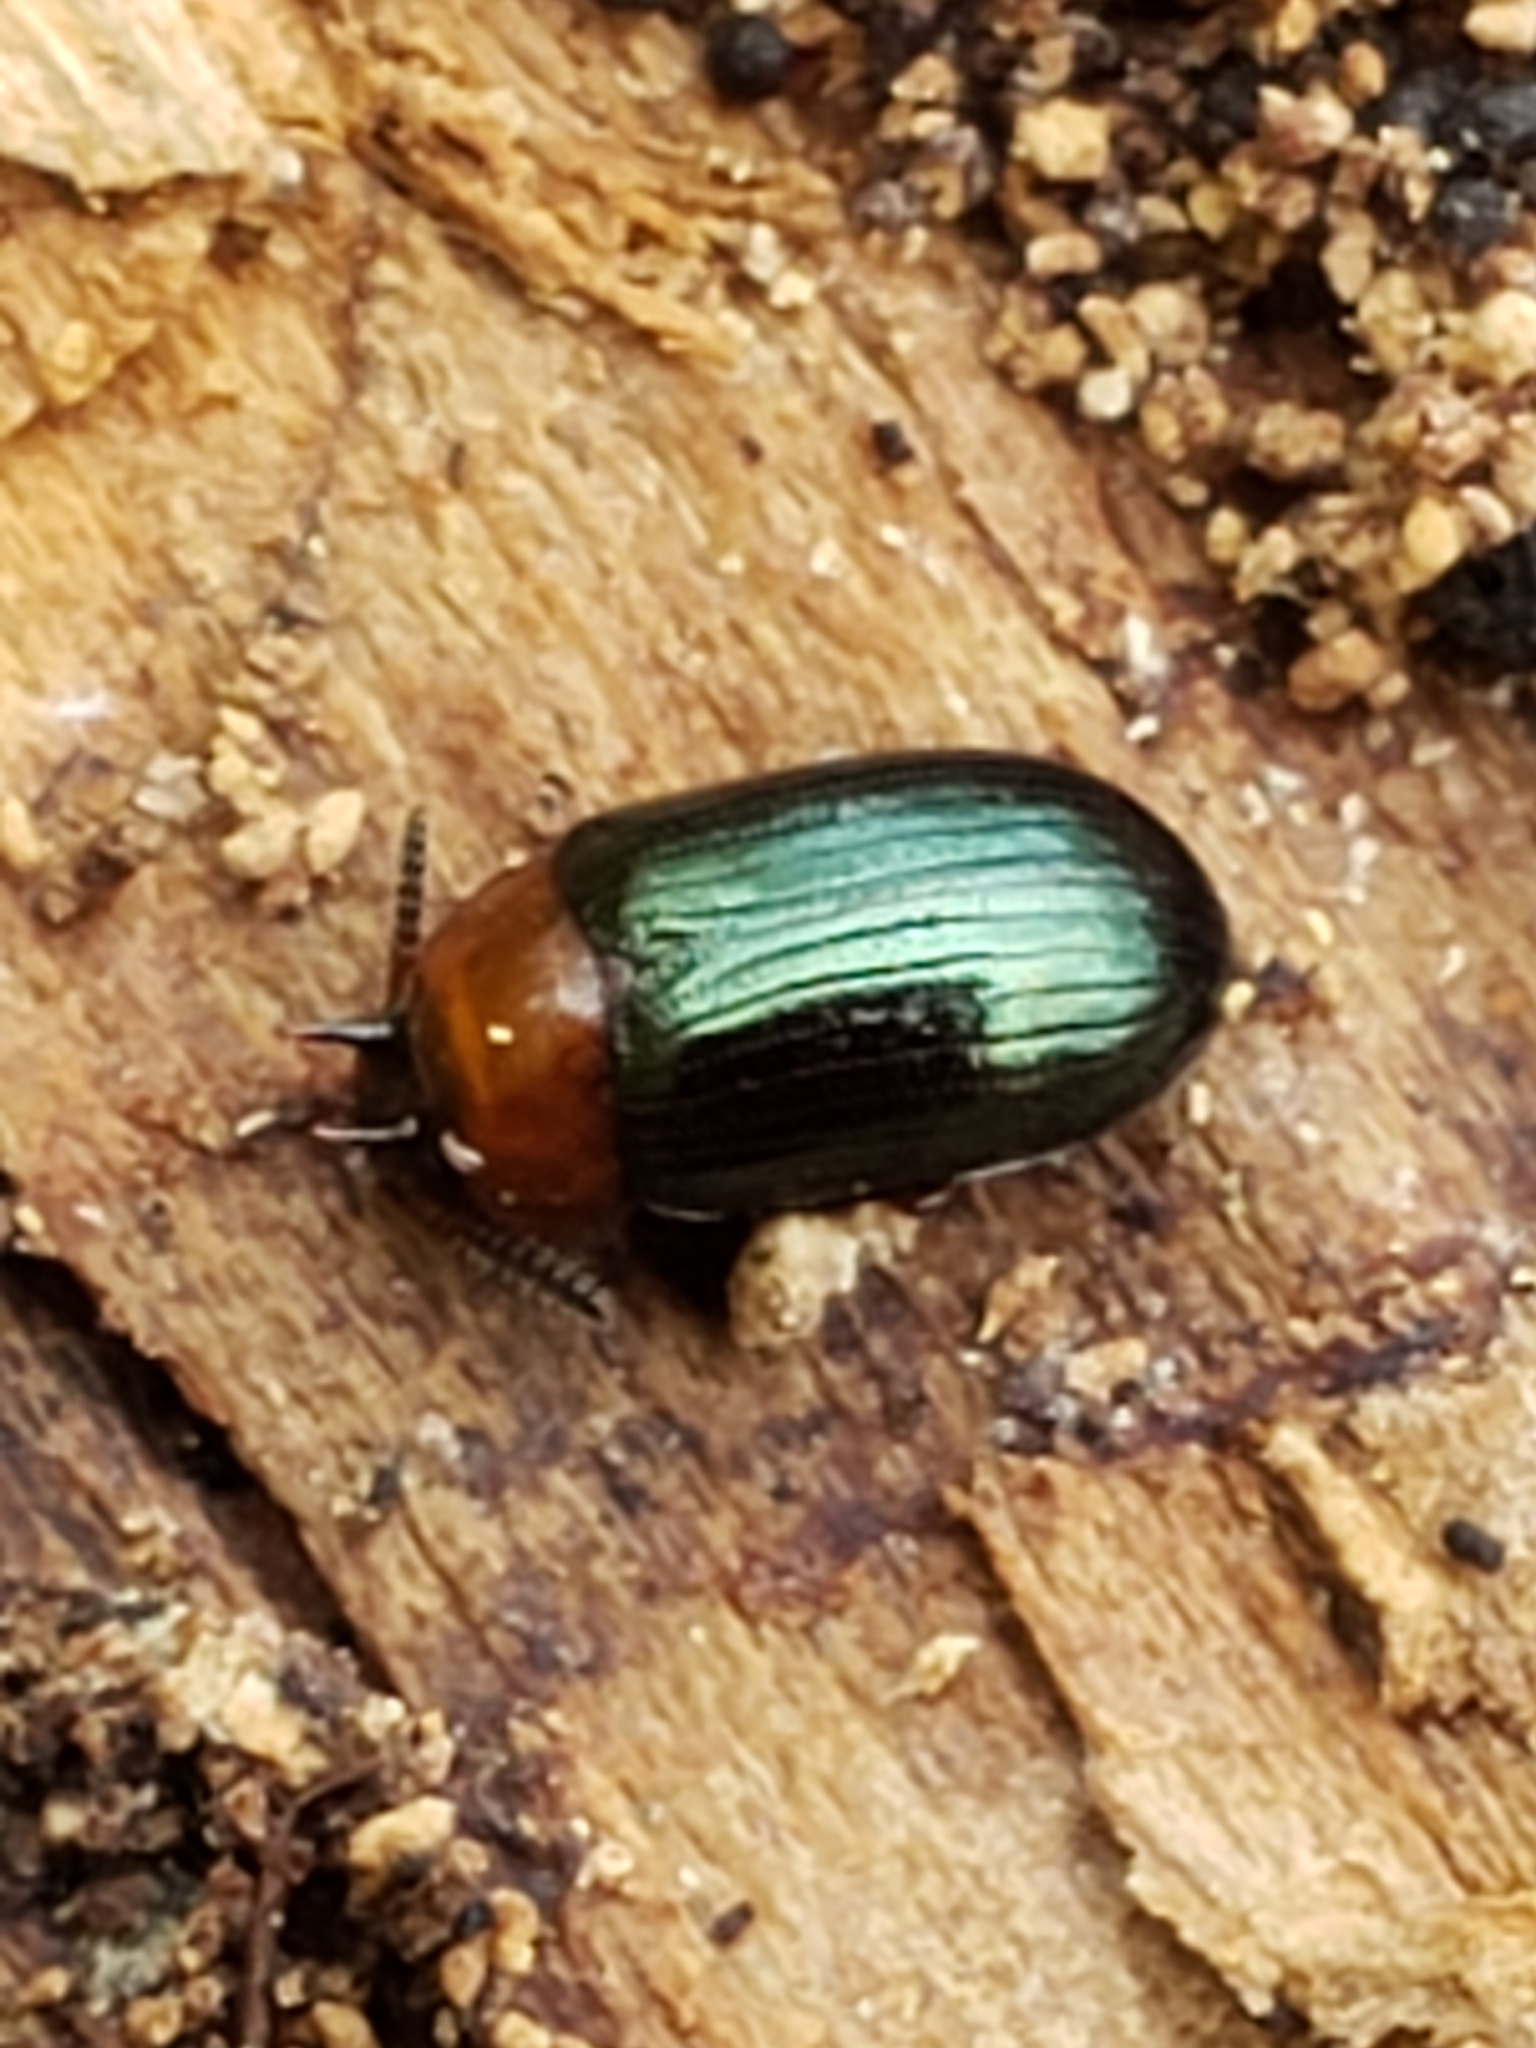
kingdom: Animalia
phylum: Arthropoda
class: Insecta
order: Coleoptera
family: Tenebrionidae
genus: Neomida
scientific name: Neomida bicornis
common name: Two-horned darkling beetle
